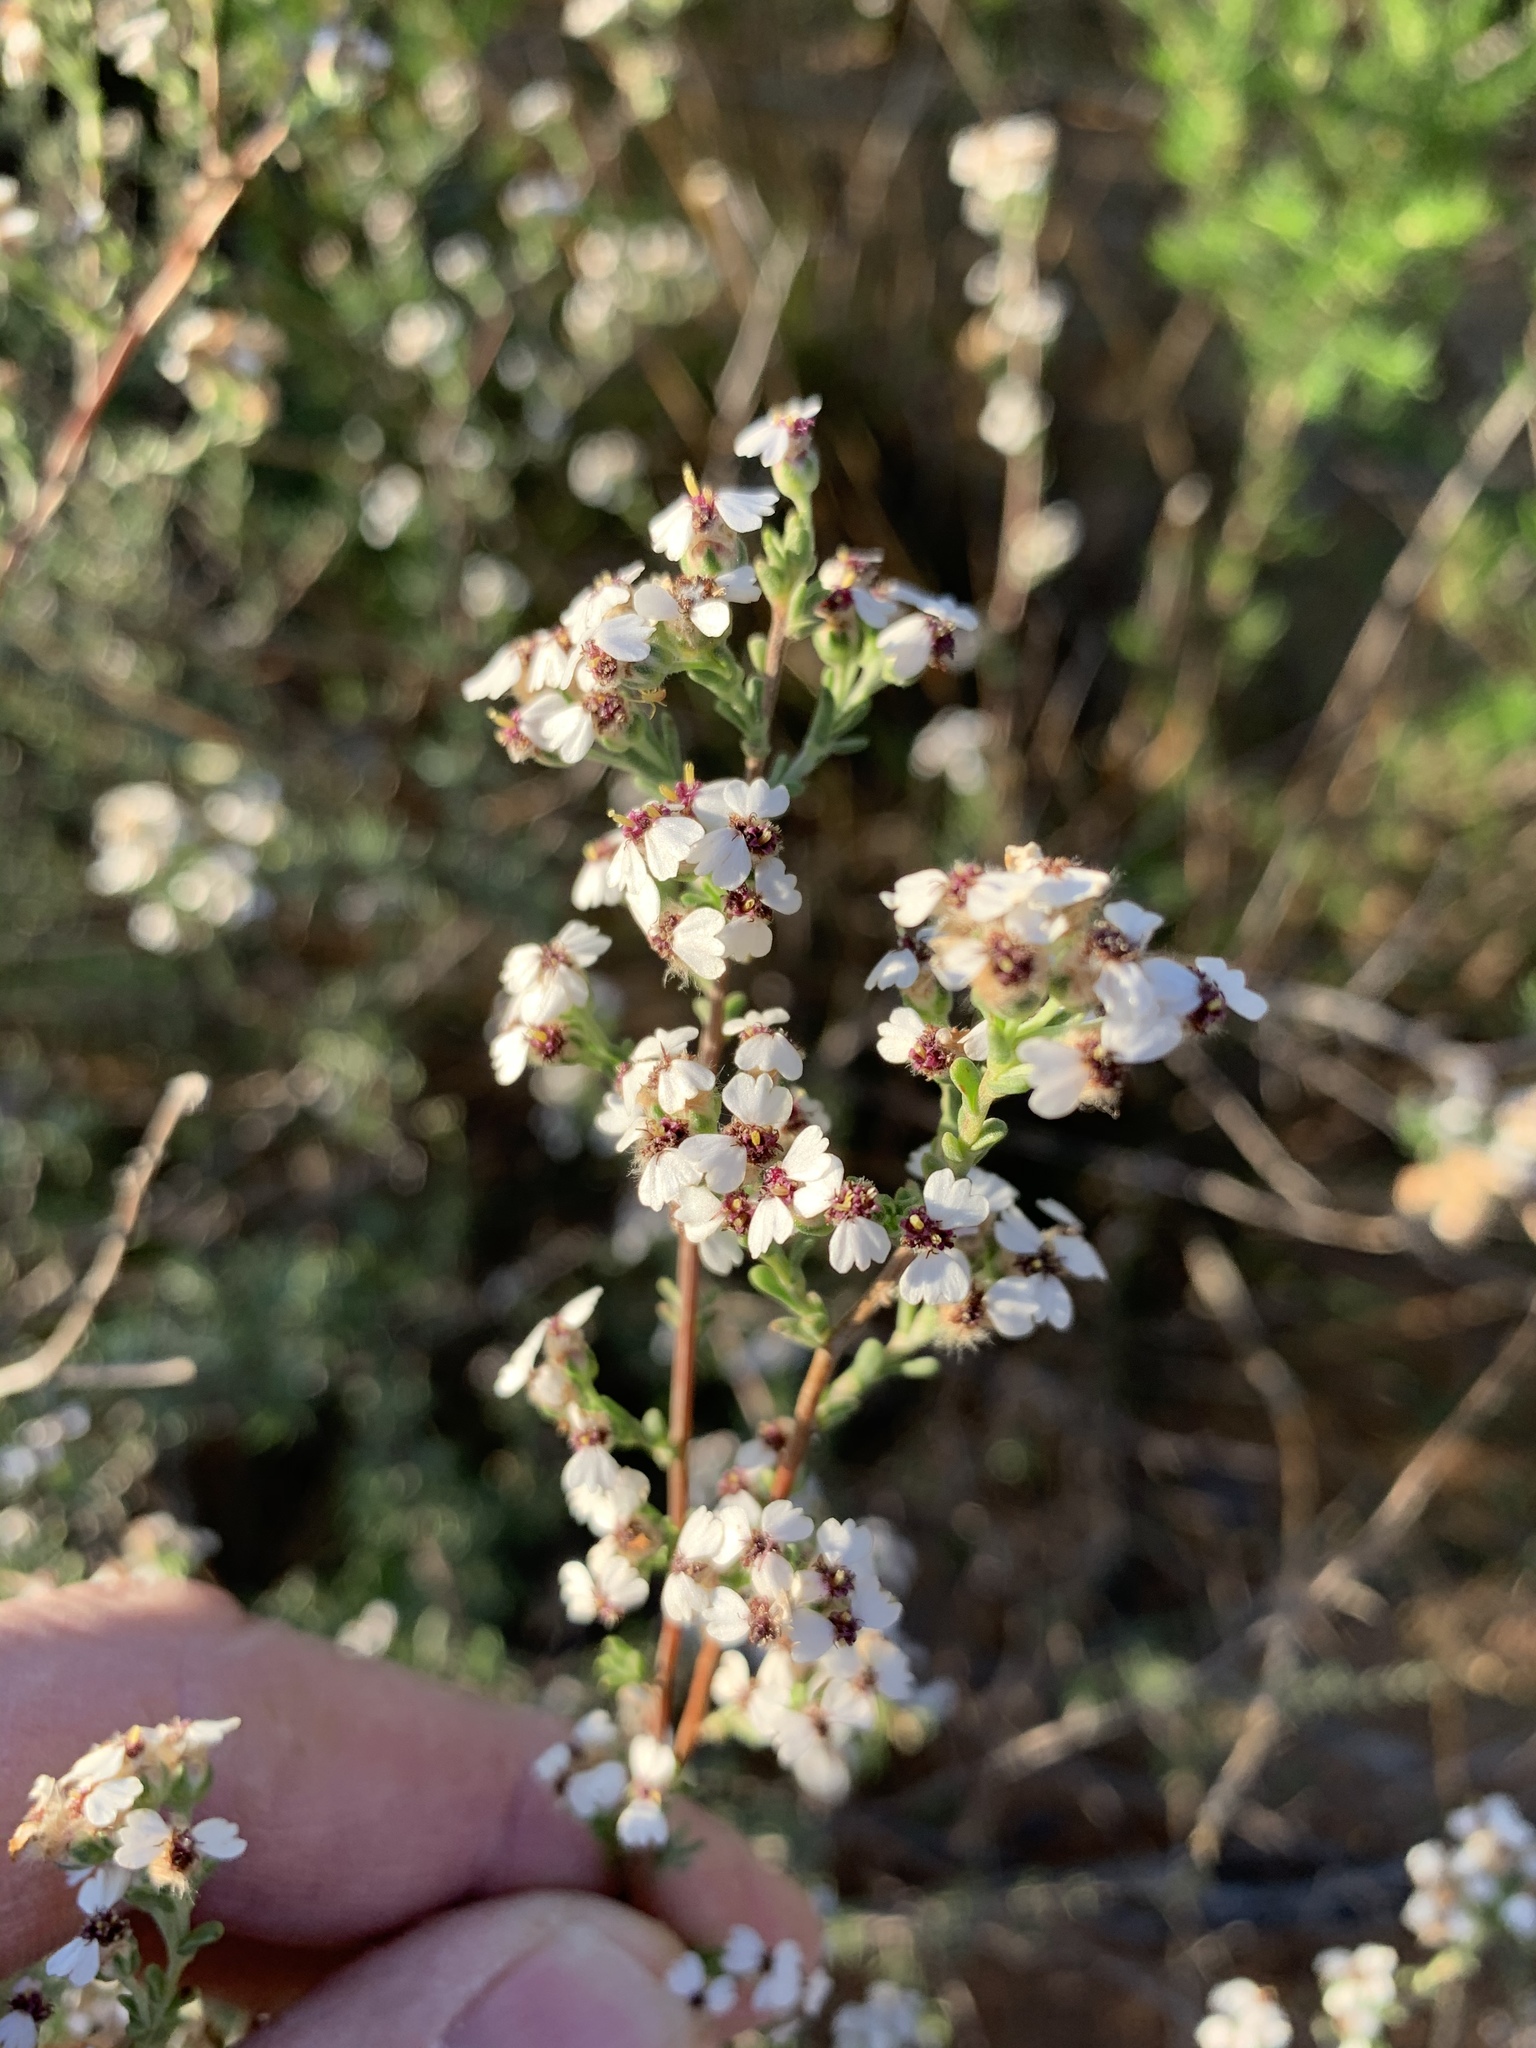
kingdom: Plantae
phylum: Tracheophyta
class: Magnoliopsida
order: Asterales
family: Asteraceae
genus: Eriocephalus
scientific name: Eriocephalus africanus
